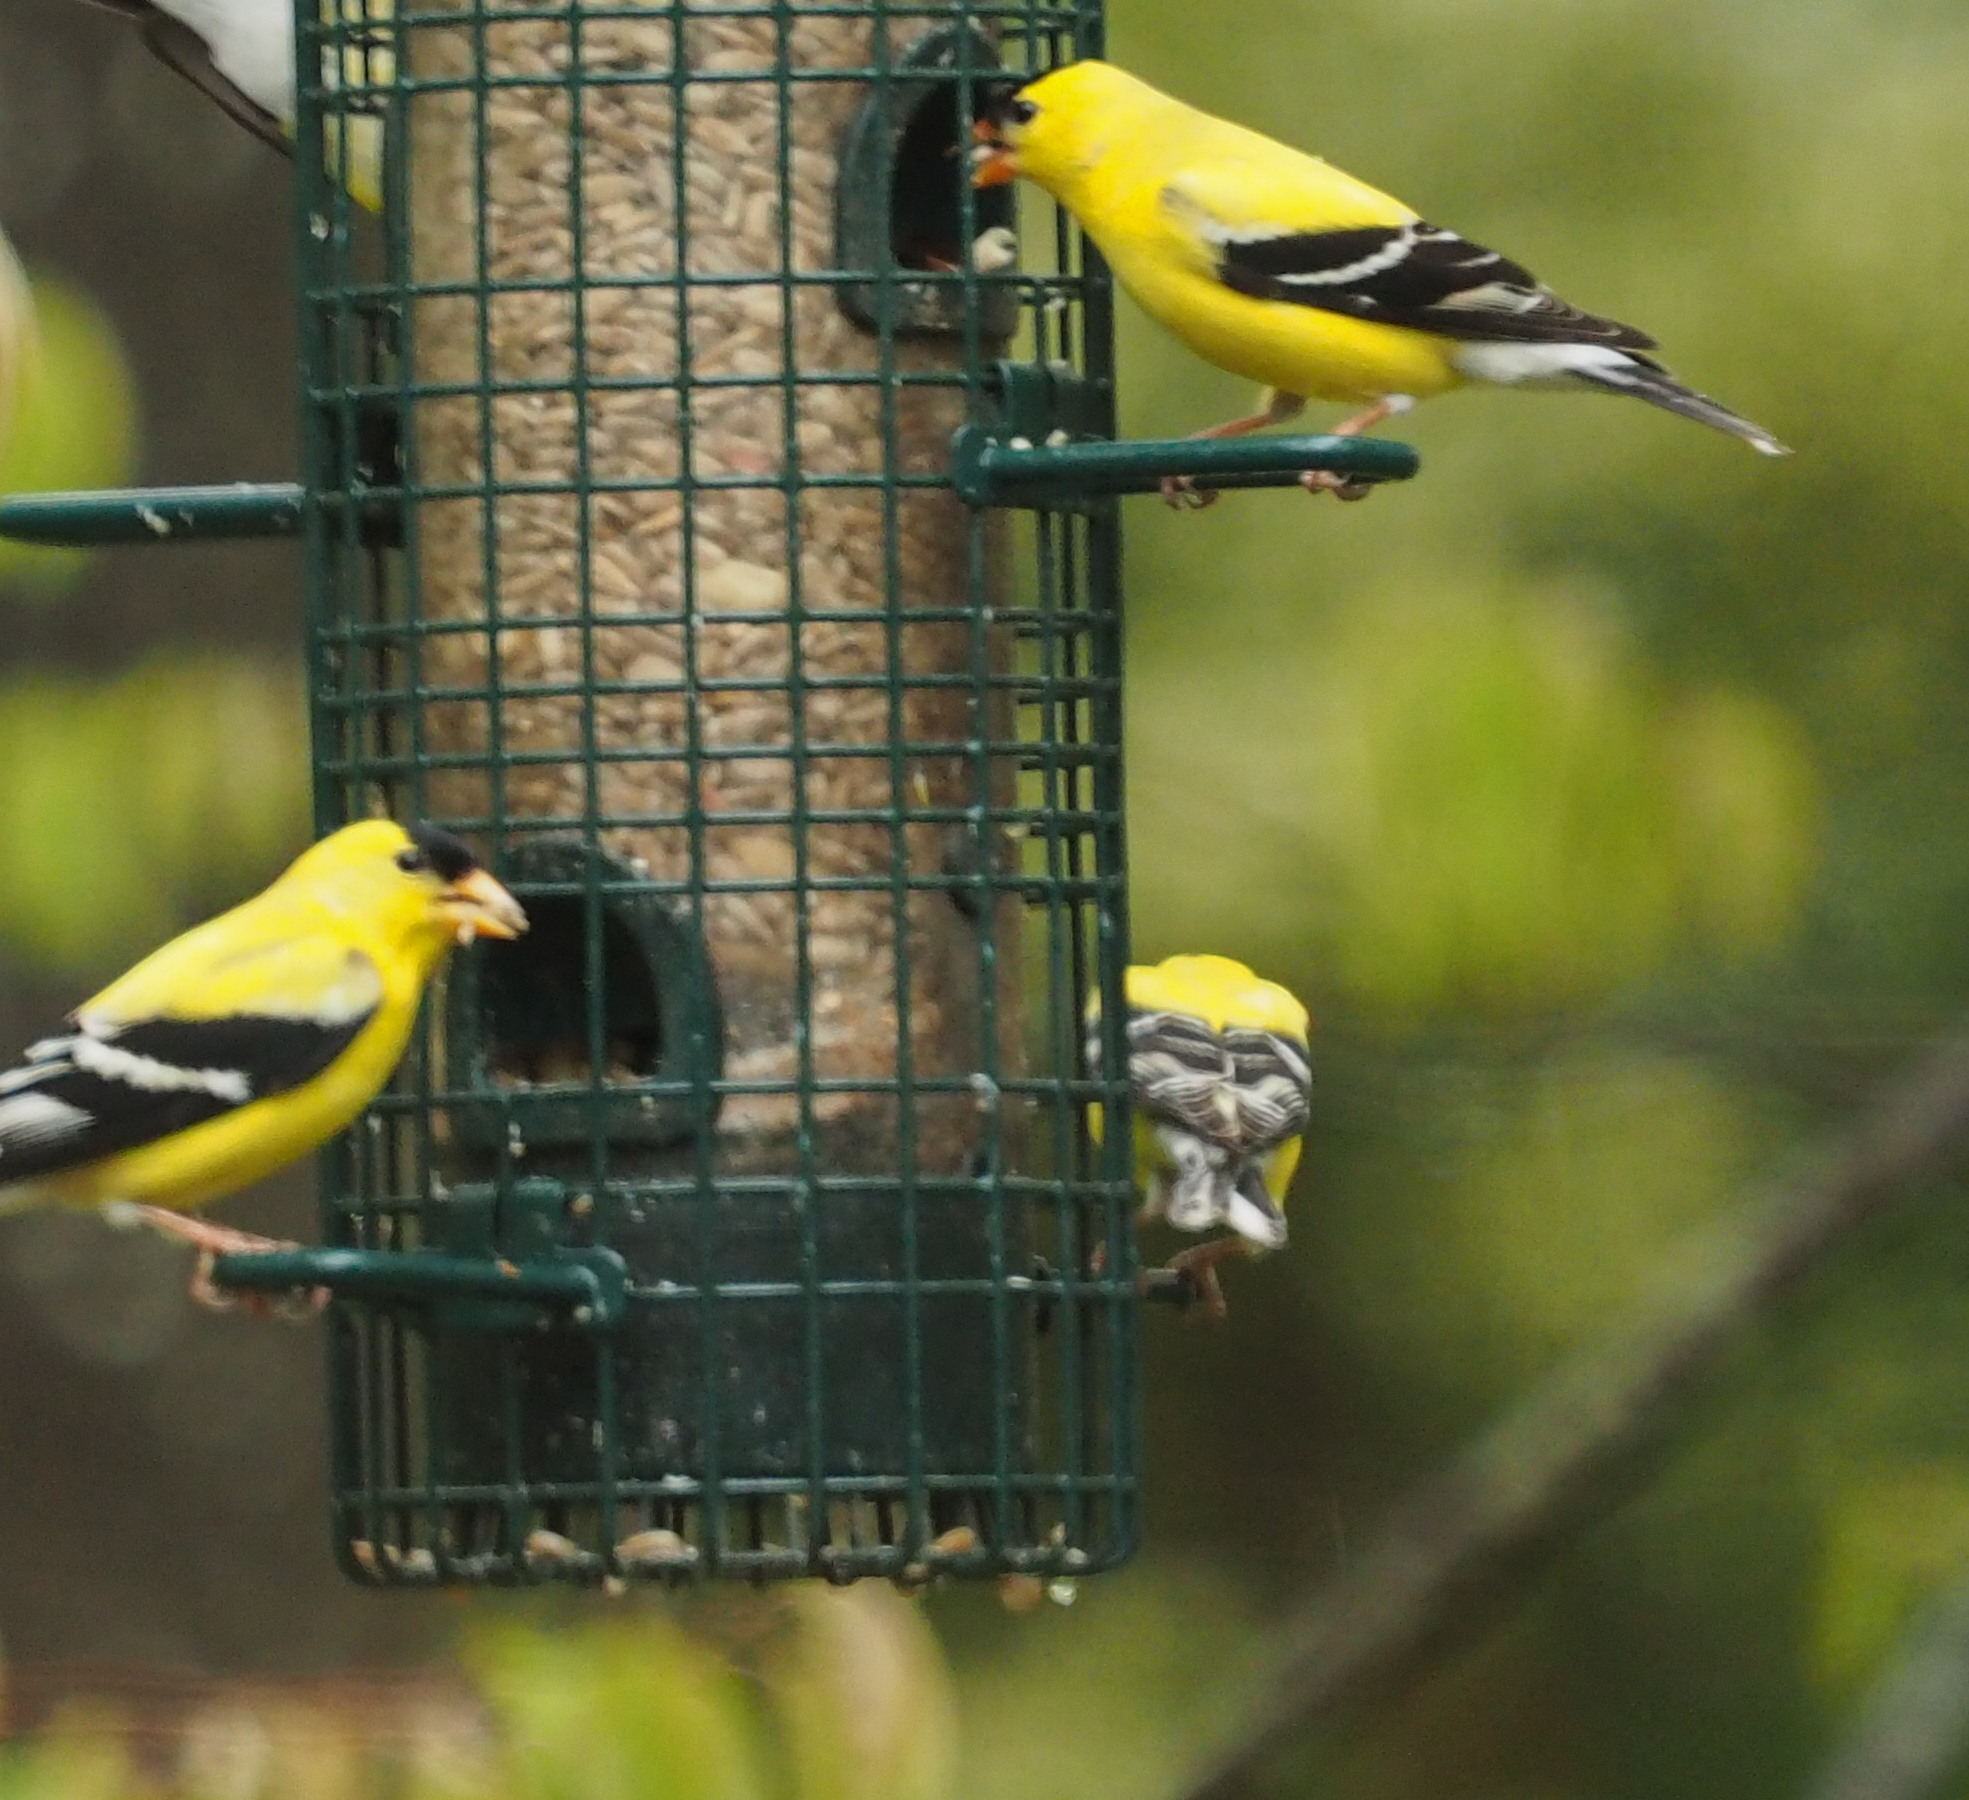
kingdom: Animalia
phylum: Chordata
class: Aves
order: Passeriformes
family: Fringillidae
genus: Spinus
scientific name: Spinus tristis
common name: American goldfinch
